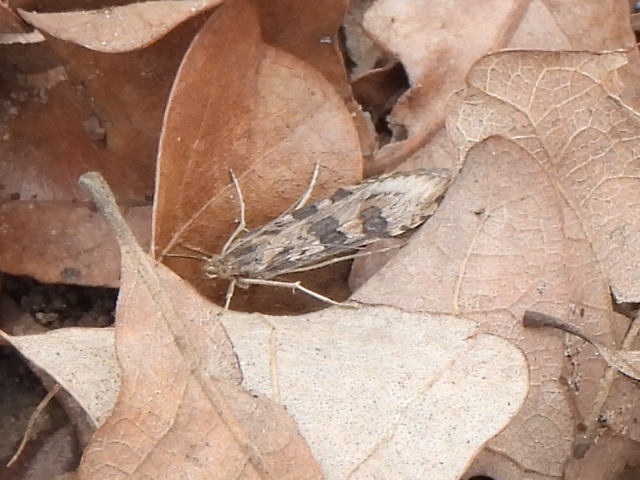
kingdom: Animalia
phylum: Arthropoda
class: Insecta
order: Lepidoptera
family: Crambidae
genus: Nomophila
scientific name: Nomophila nearctica
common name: American rush veneer
